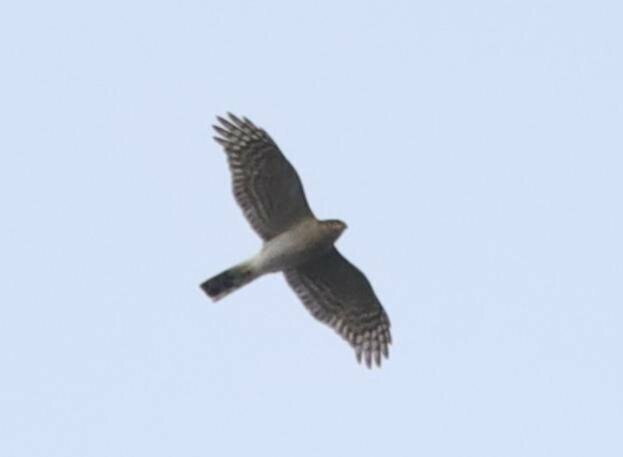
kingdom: Animalia
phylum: Chordata
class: Aves
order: Accipitriformes
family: Accipitridae
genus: Accipiter
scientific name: Accipiter nisus
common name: Eurasian sparrowhawk
